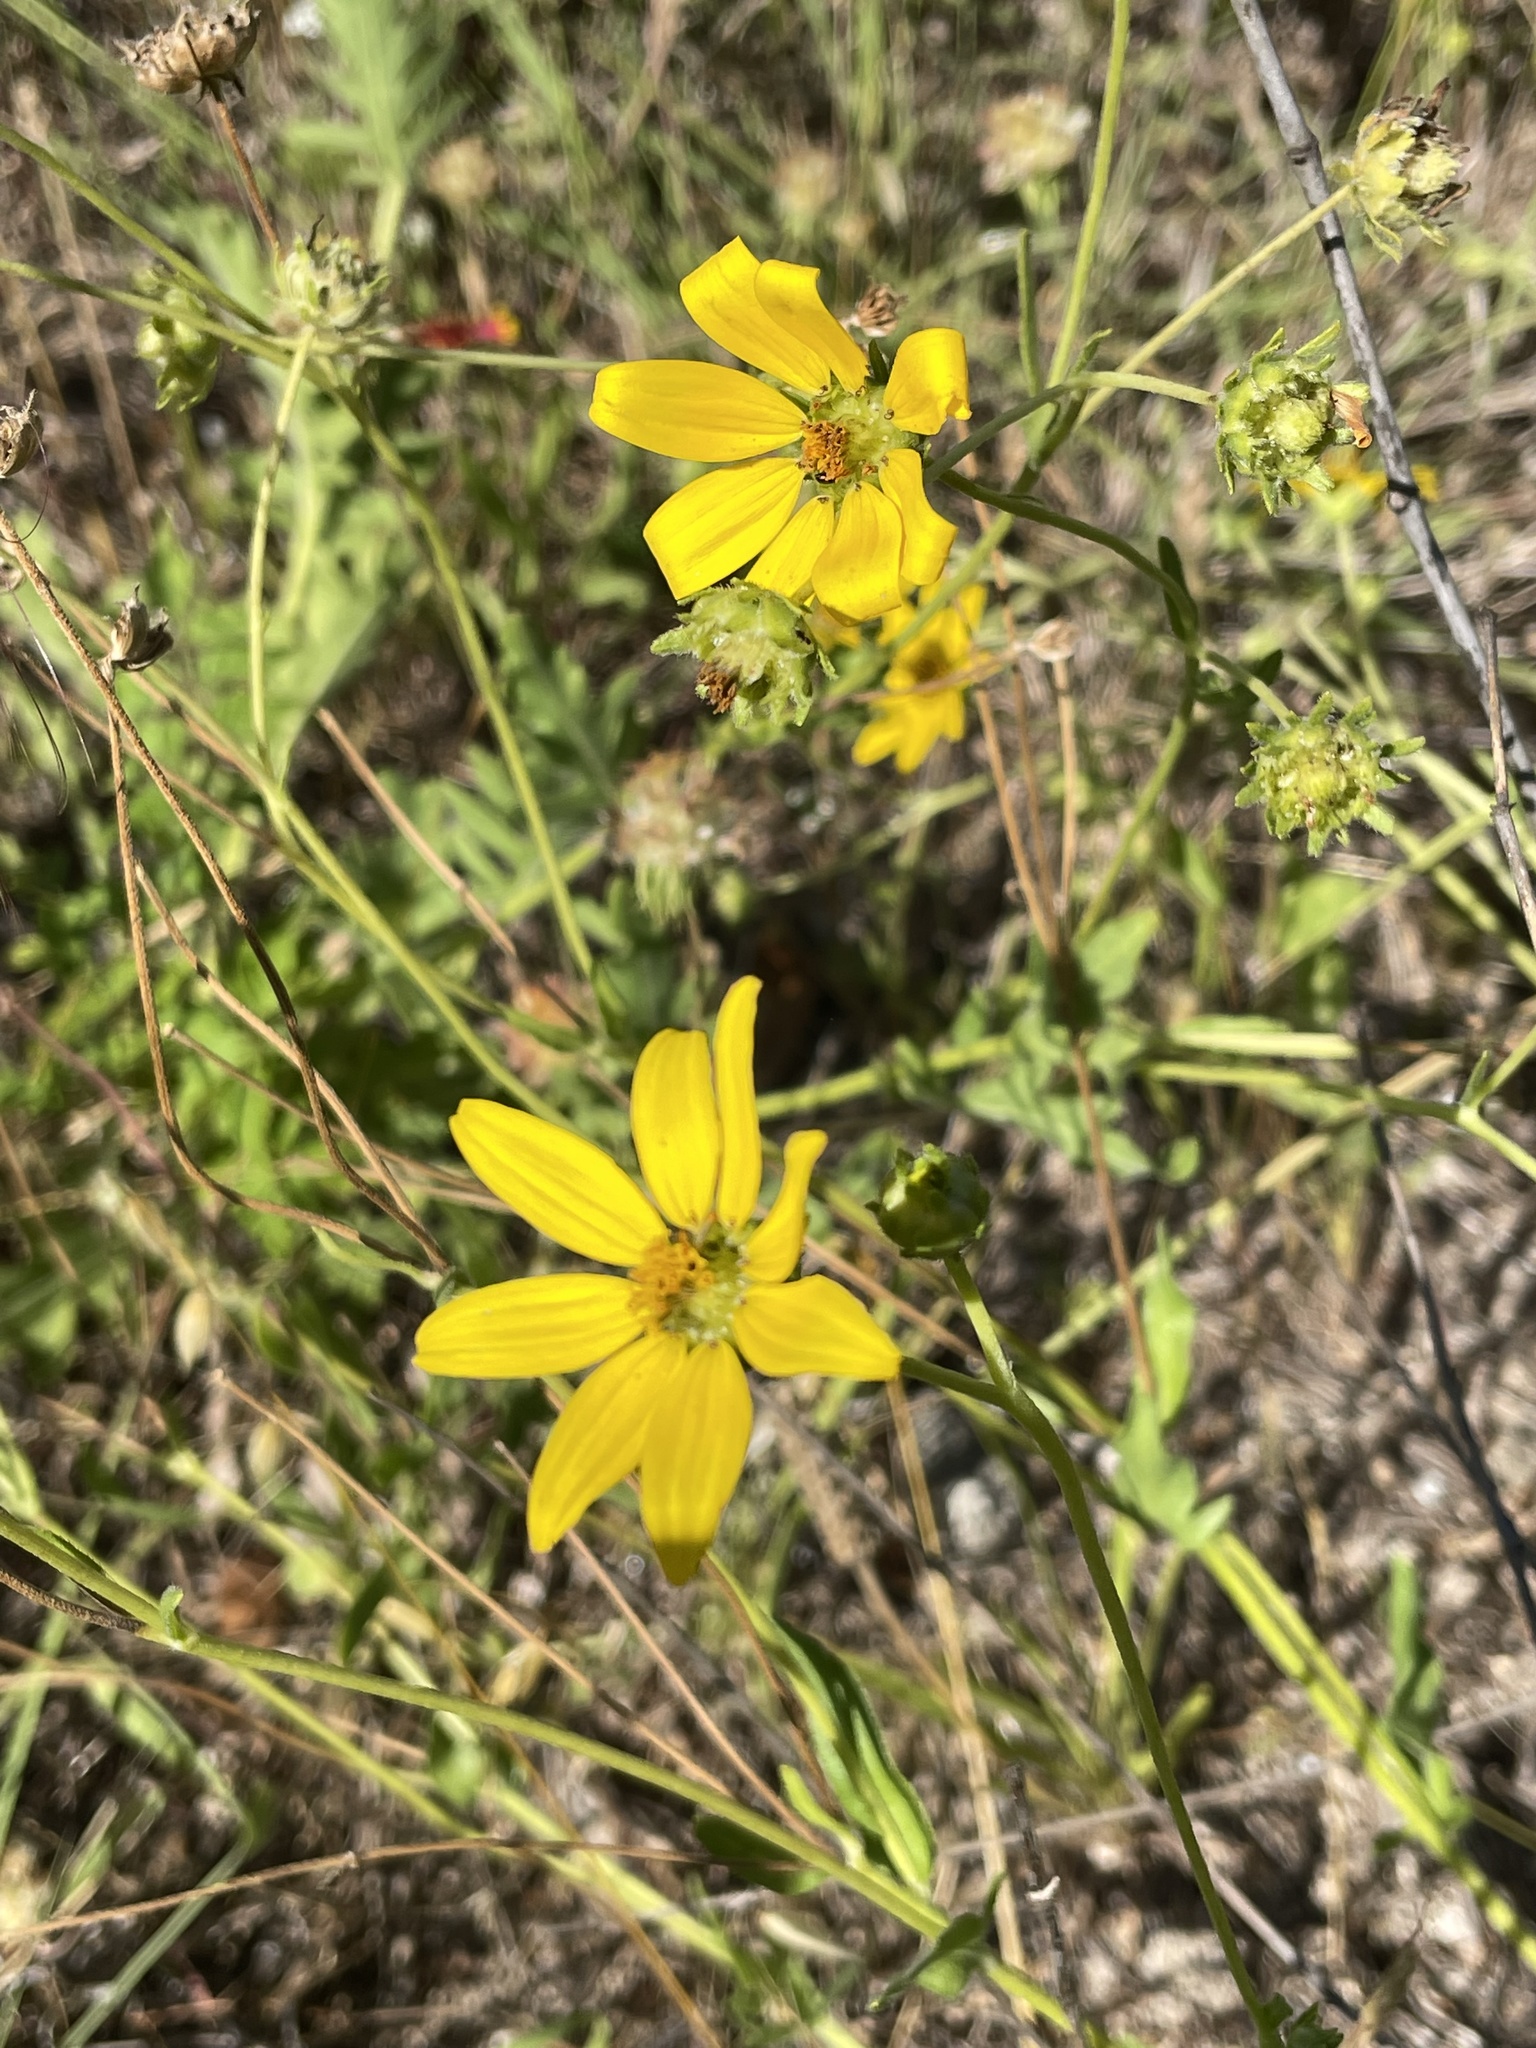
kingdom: Plantae
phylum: Tracheophyta
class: Magnoliopsida
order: Asterales
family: Asteraceae
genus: Engelmannia
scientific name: Engelmannia peristenia
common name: Engelmann's daisy
